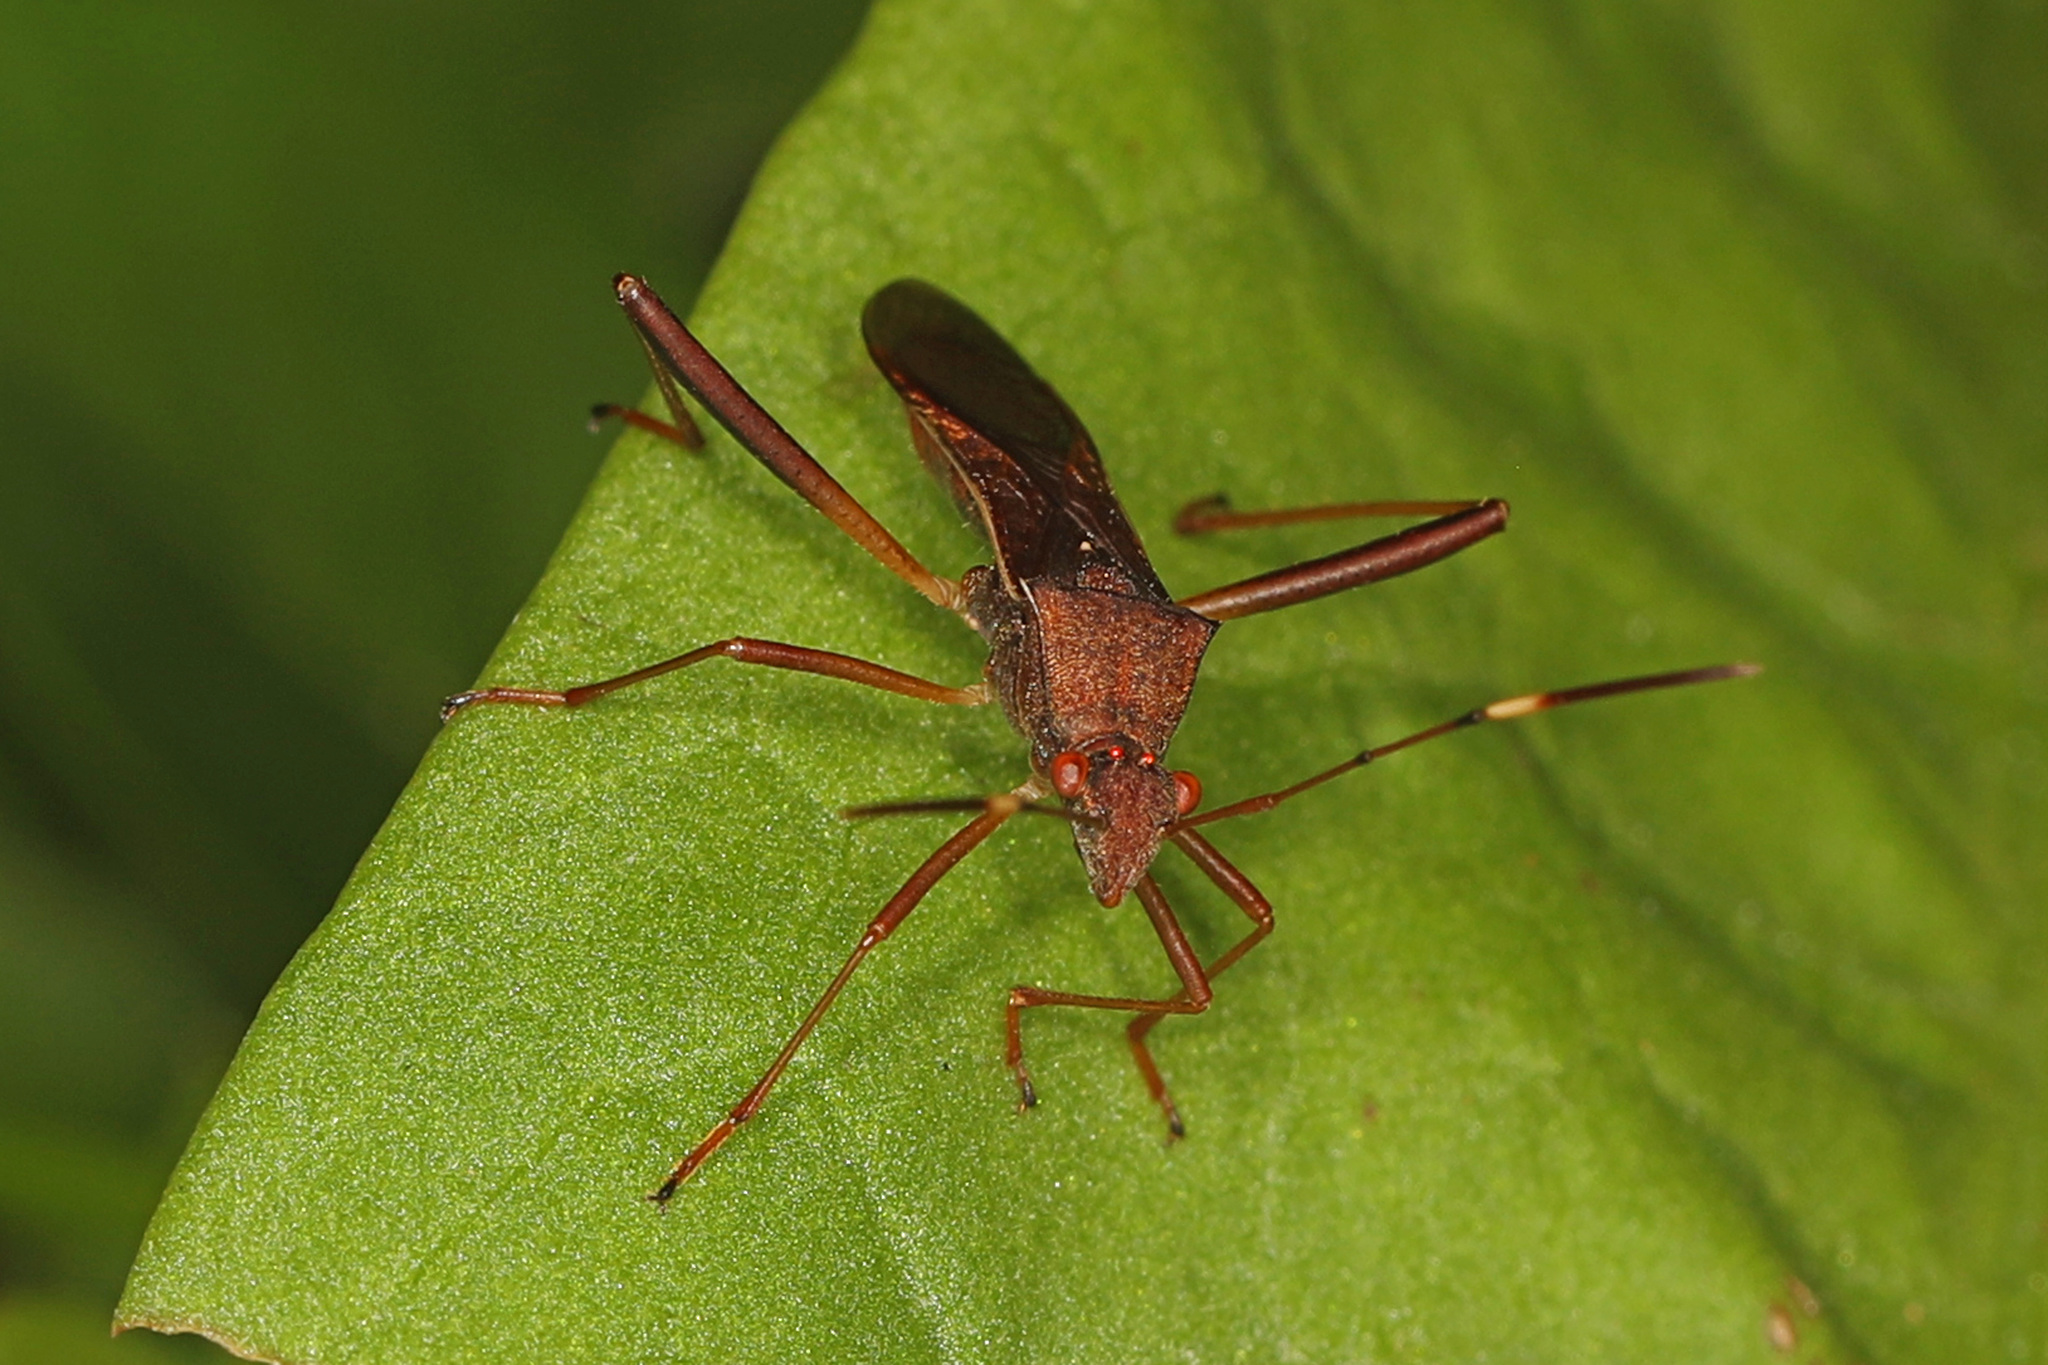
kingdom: Animalia
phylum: Arthropoda
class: Insecta
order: Hemiptera
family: Alydidae
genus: Megalotomus
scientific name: Megalotomus quinquespinosus
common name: Lupine bug
